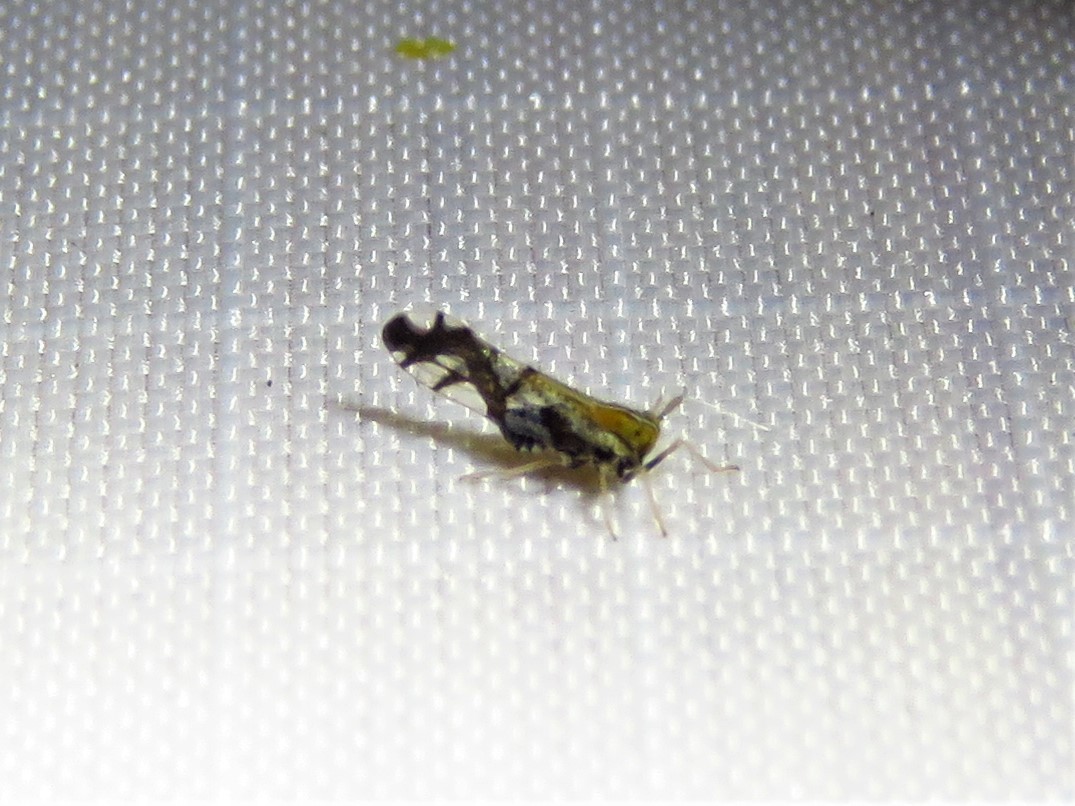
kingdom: Animalia
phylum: Arthropoda
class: Insecta
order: Hemiptera
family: Delphacidae
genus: Liburniella
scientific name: Liburniella ornata
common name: Ornate planthopper
